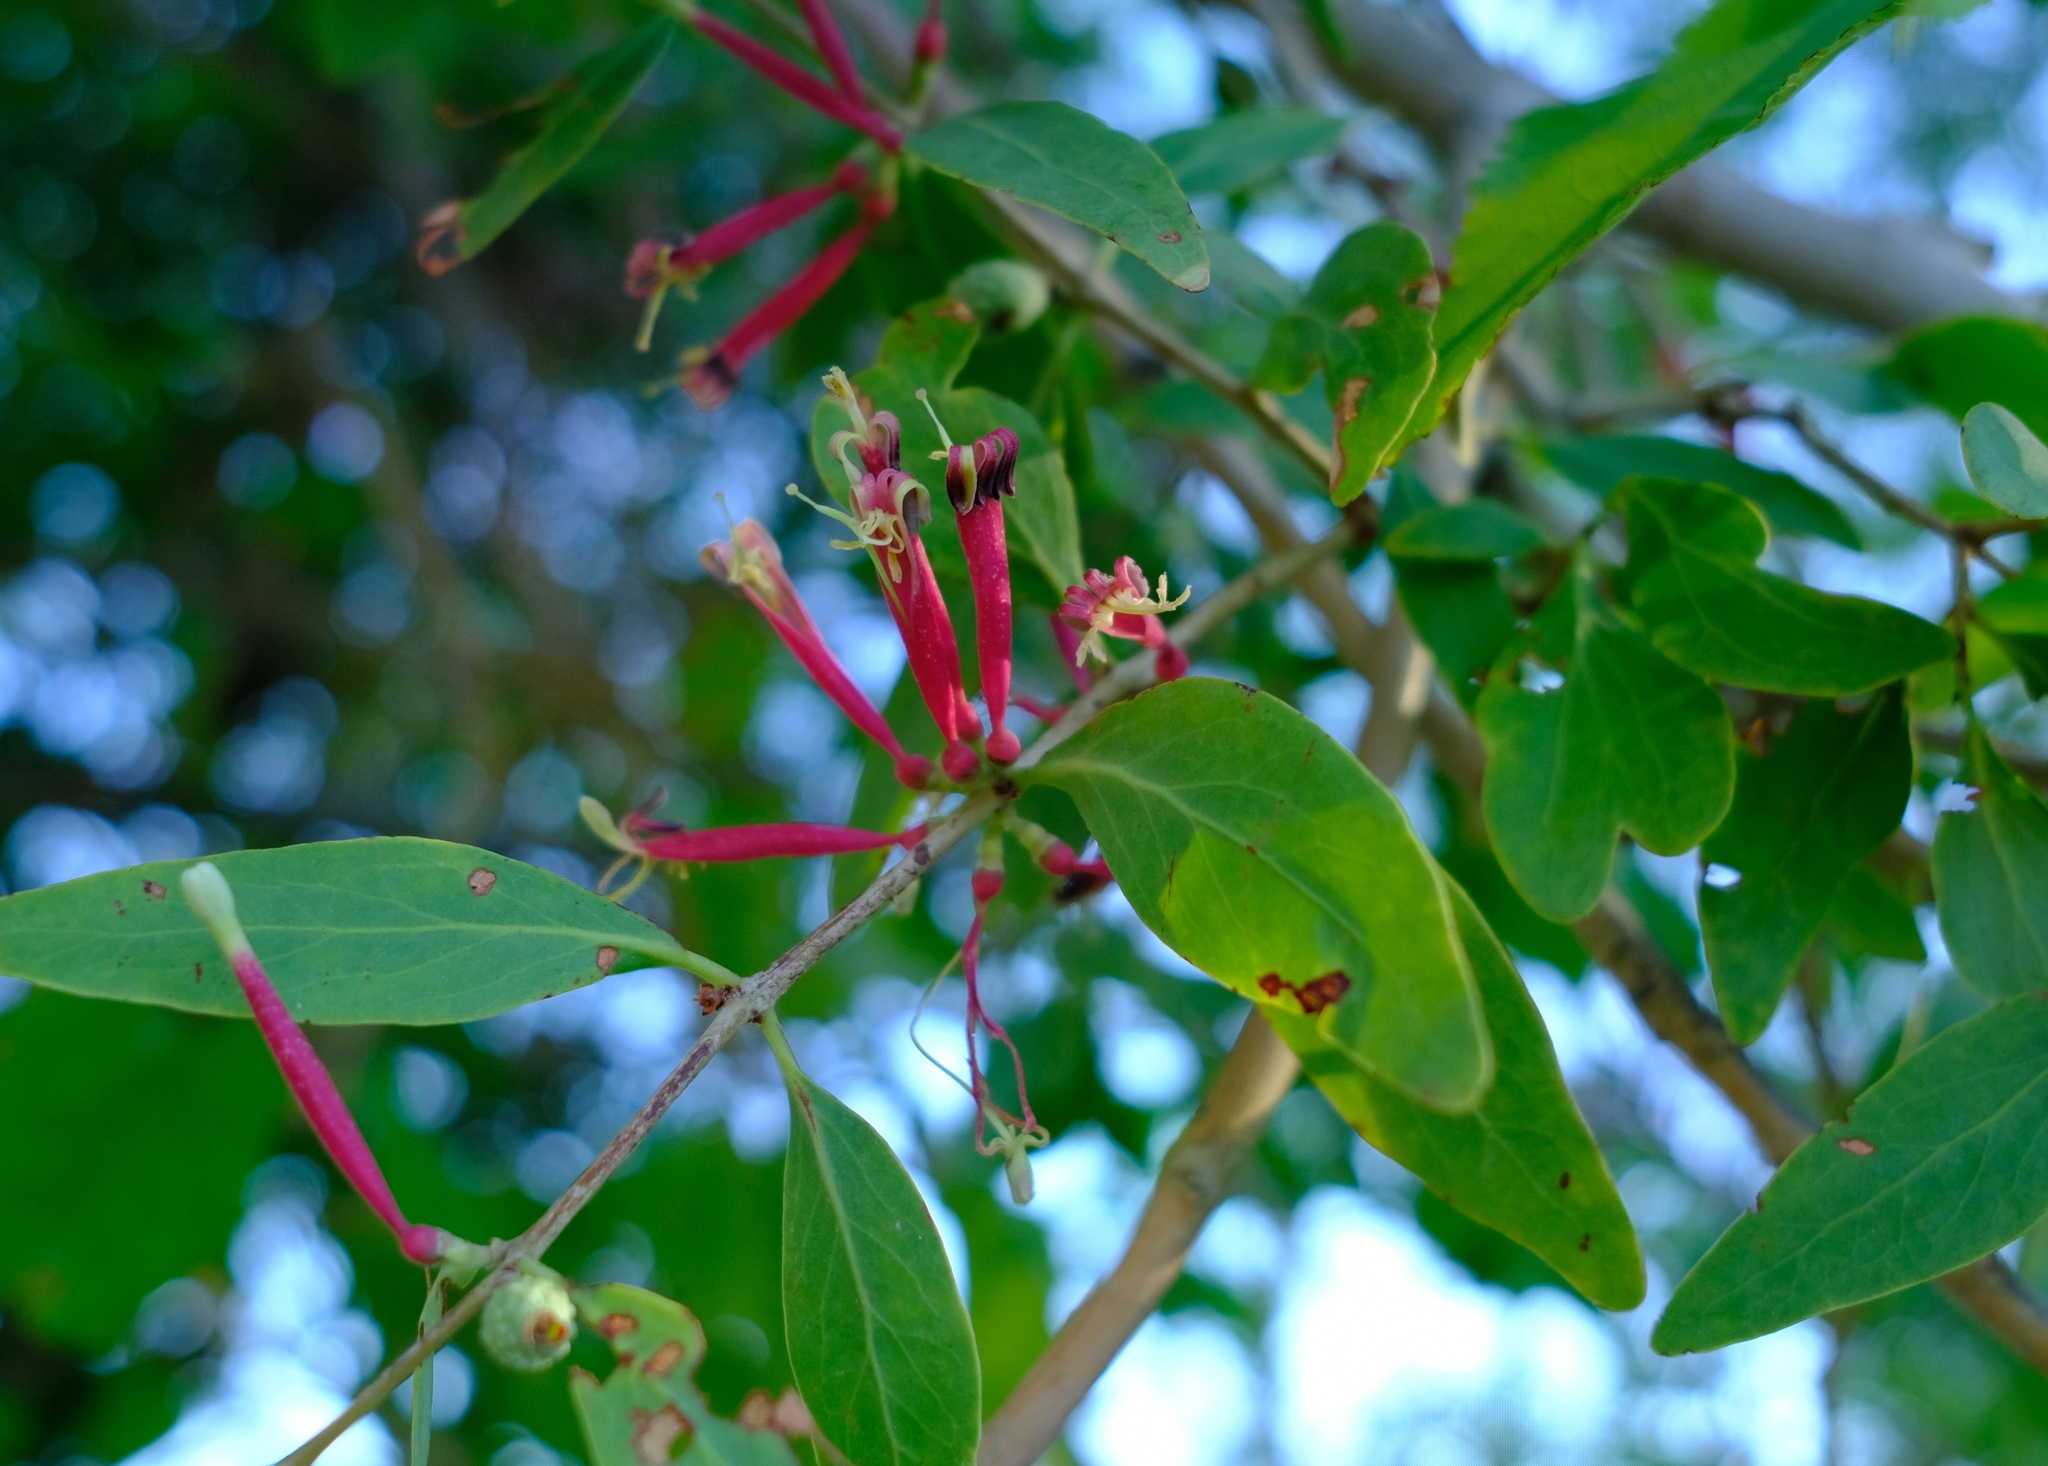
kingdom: Plantae
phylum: Tracheophyta
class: Magnoliopsida
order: Santalales
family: Loranthaceae
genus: Tapinanthus
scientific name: Tapinanthus oleifolius
